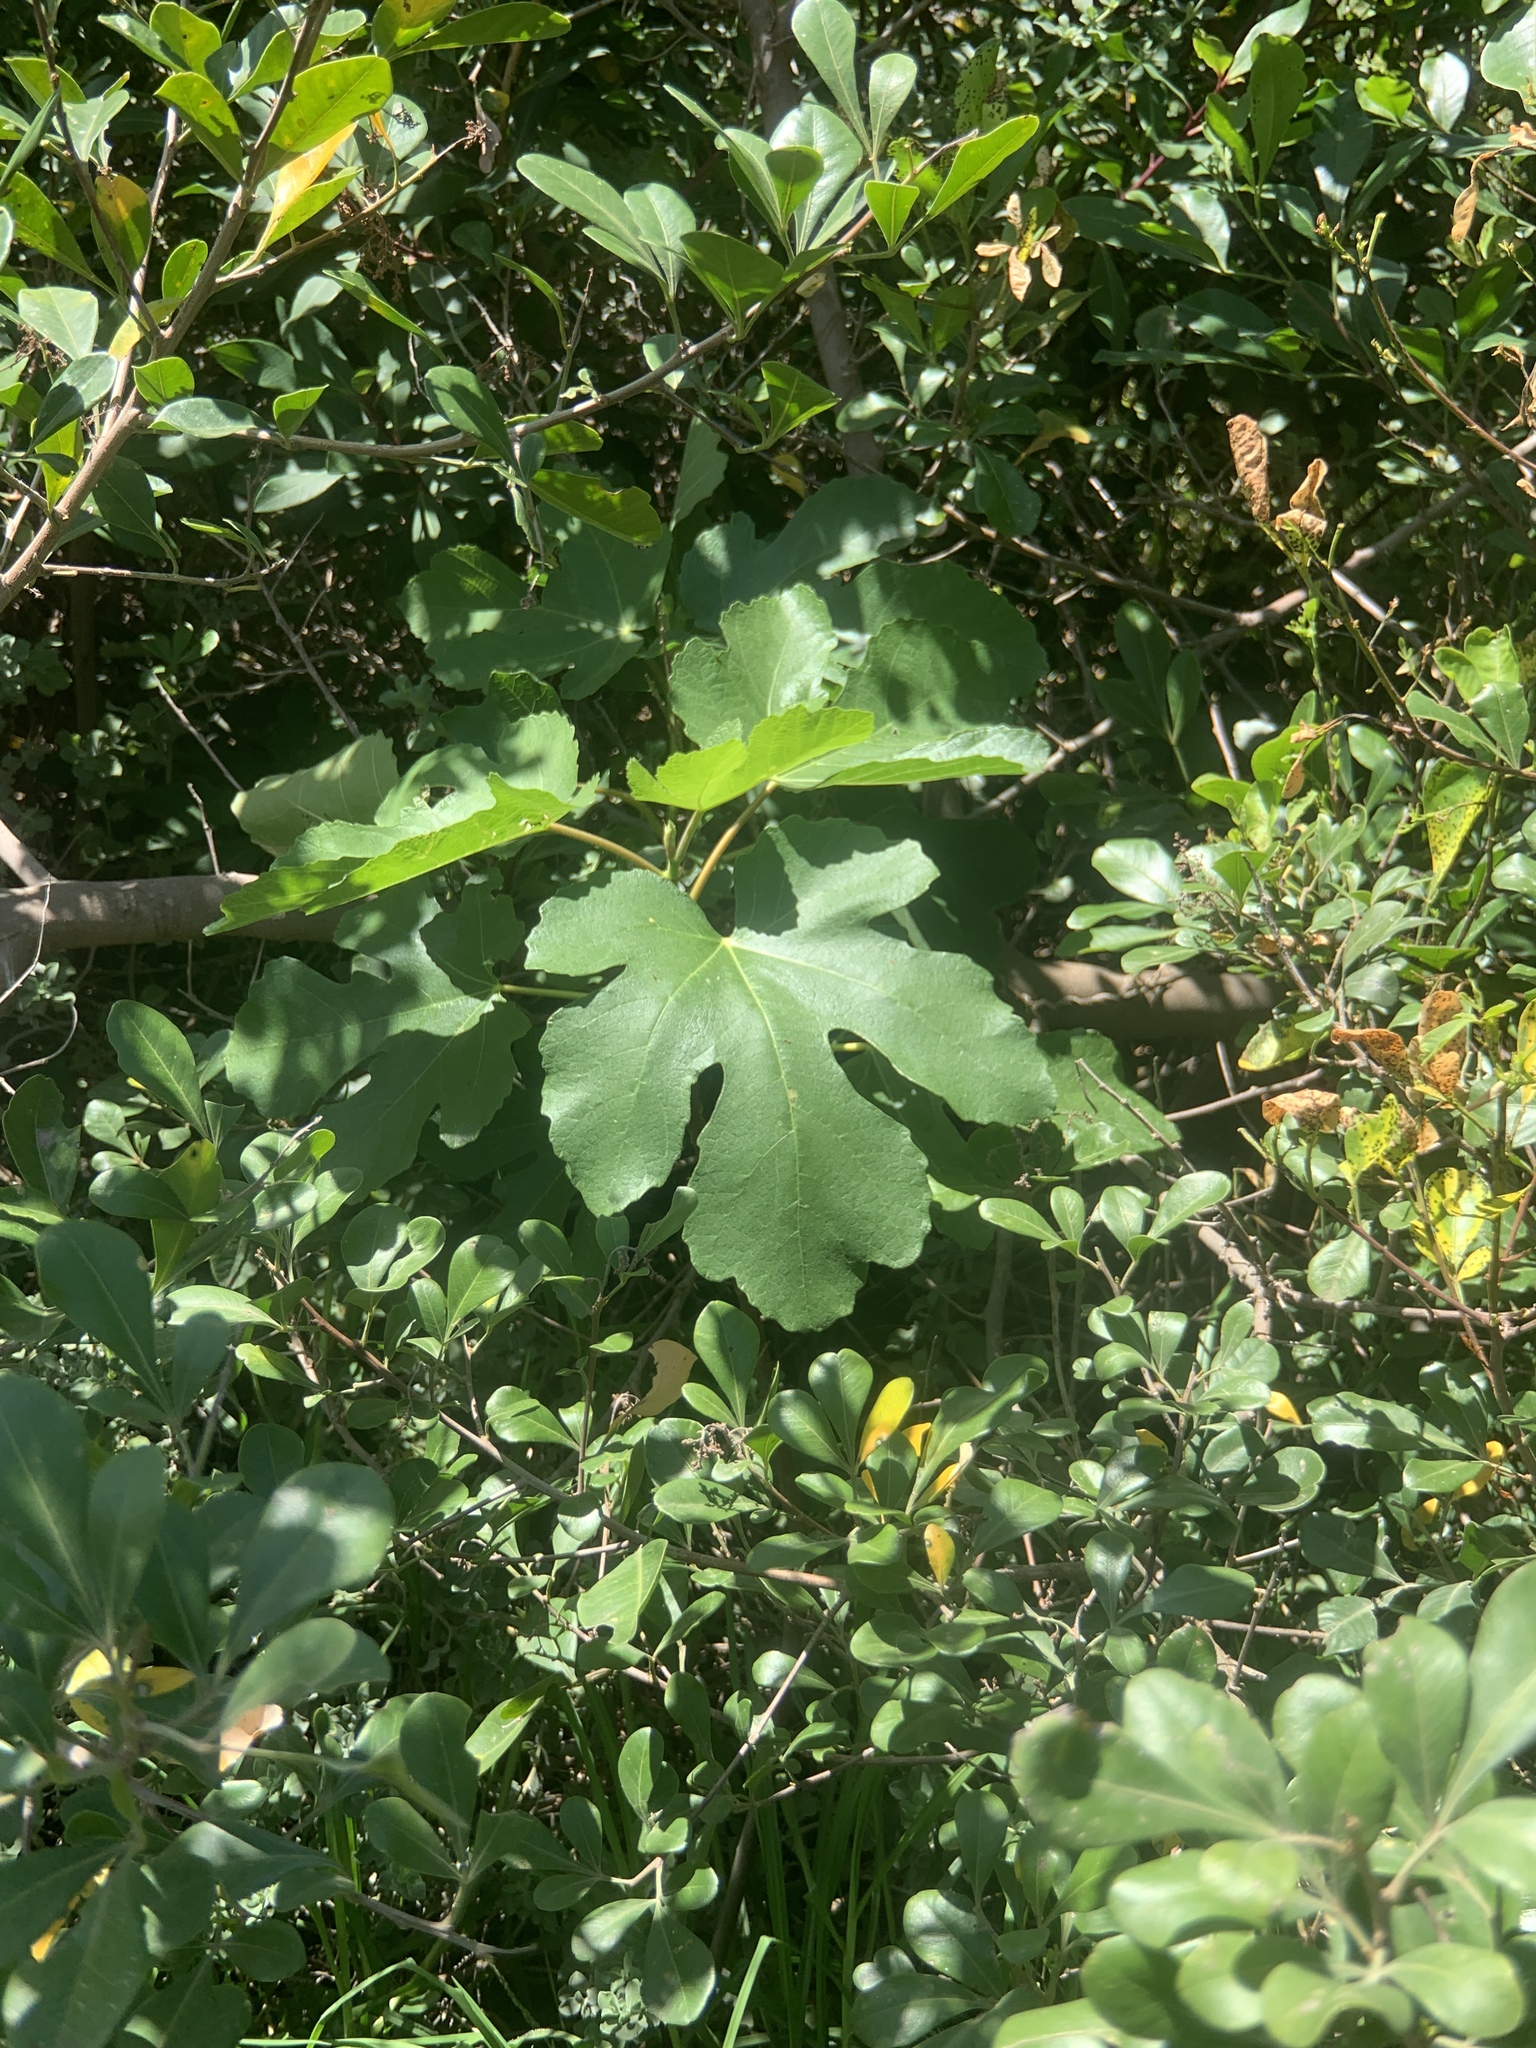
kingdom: Plantae
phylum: Tracheophyta
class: Magnoliopsida
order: Rosales
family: Moraceae
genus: Ficus
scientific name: Ficus carica
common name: Fig
